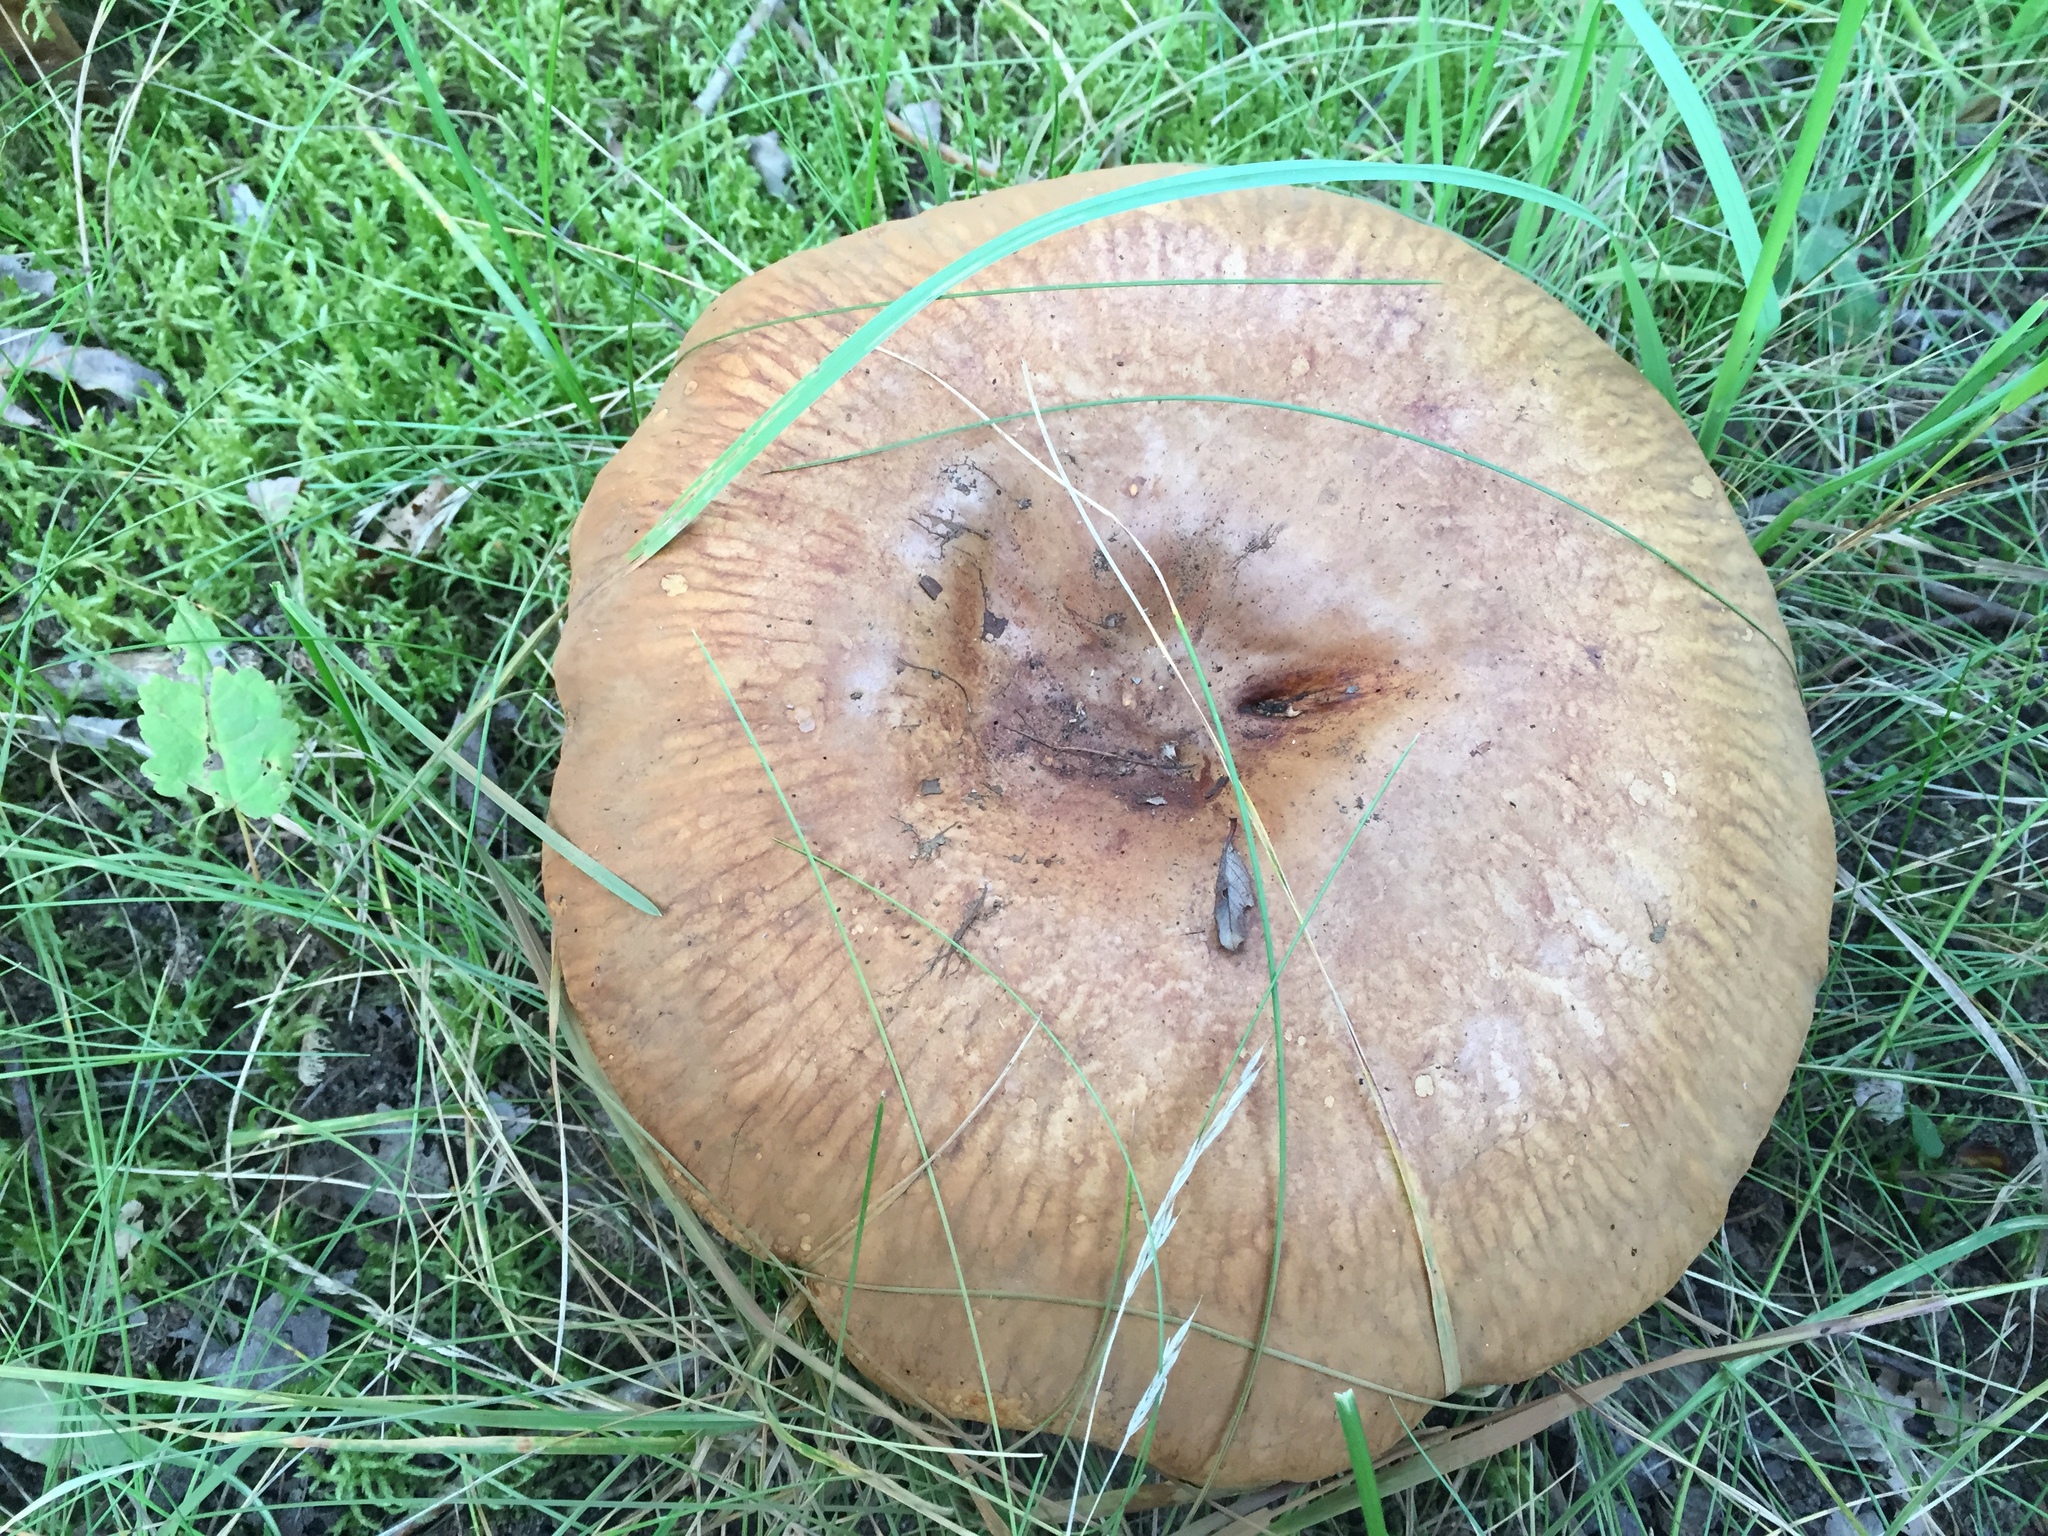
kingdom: Fungi
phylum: Basidiomycota
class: Agaricomycetes
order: Boletales
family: Paxillaceae
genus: Paxillus
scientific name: Paxillus involutus
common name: Brown roll rim
